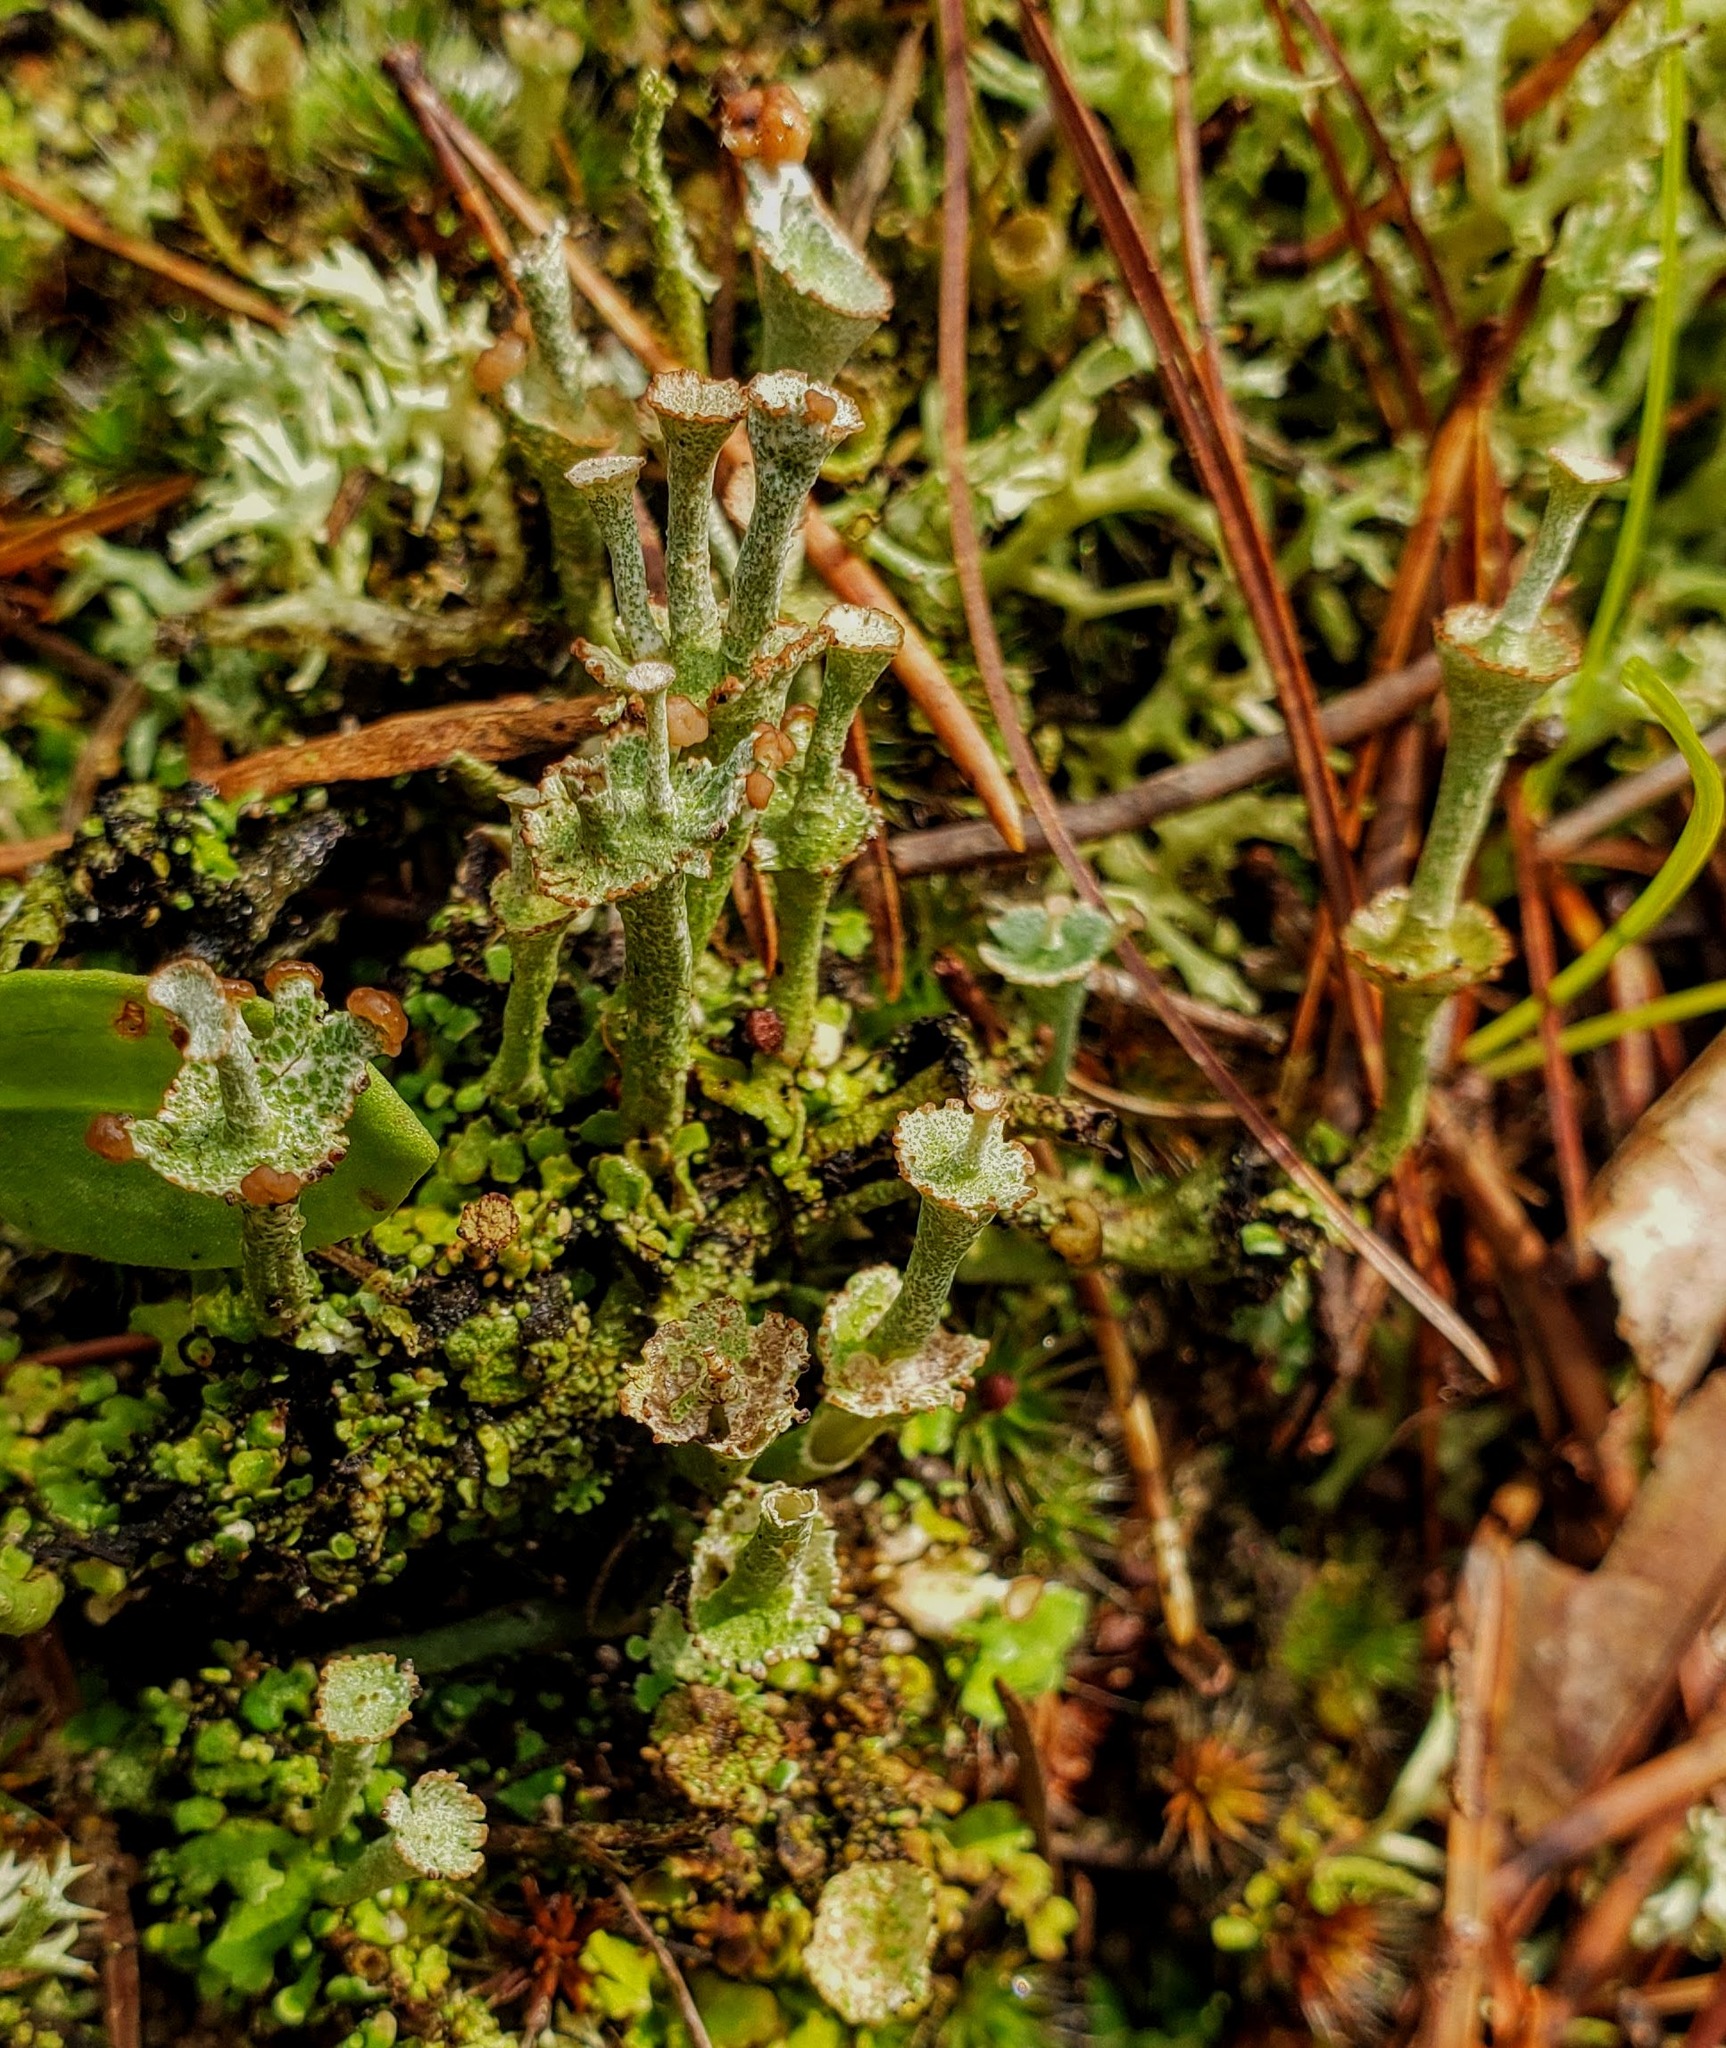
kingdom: Fungi
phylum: Ascomycota
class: Lecanoromycetes
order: Lecanorales
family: Cladoniaceae
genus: Cladonia
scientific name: Cladonia cervicornis
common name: Browned pixie-cup lichen
